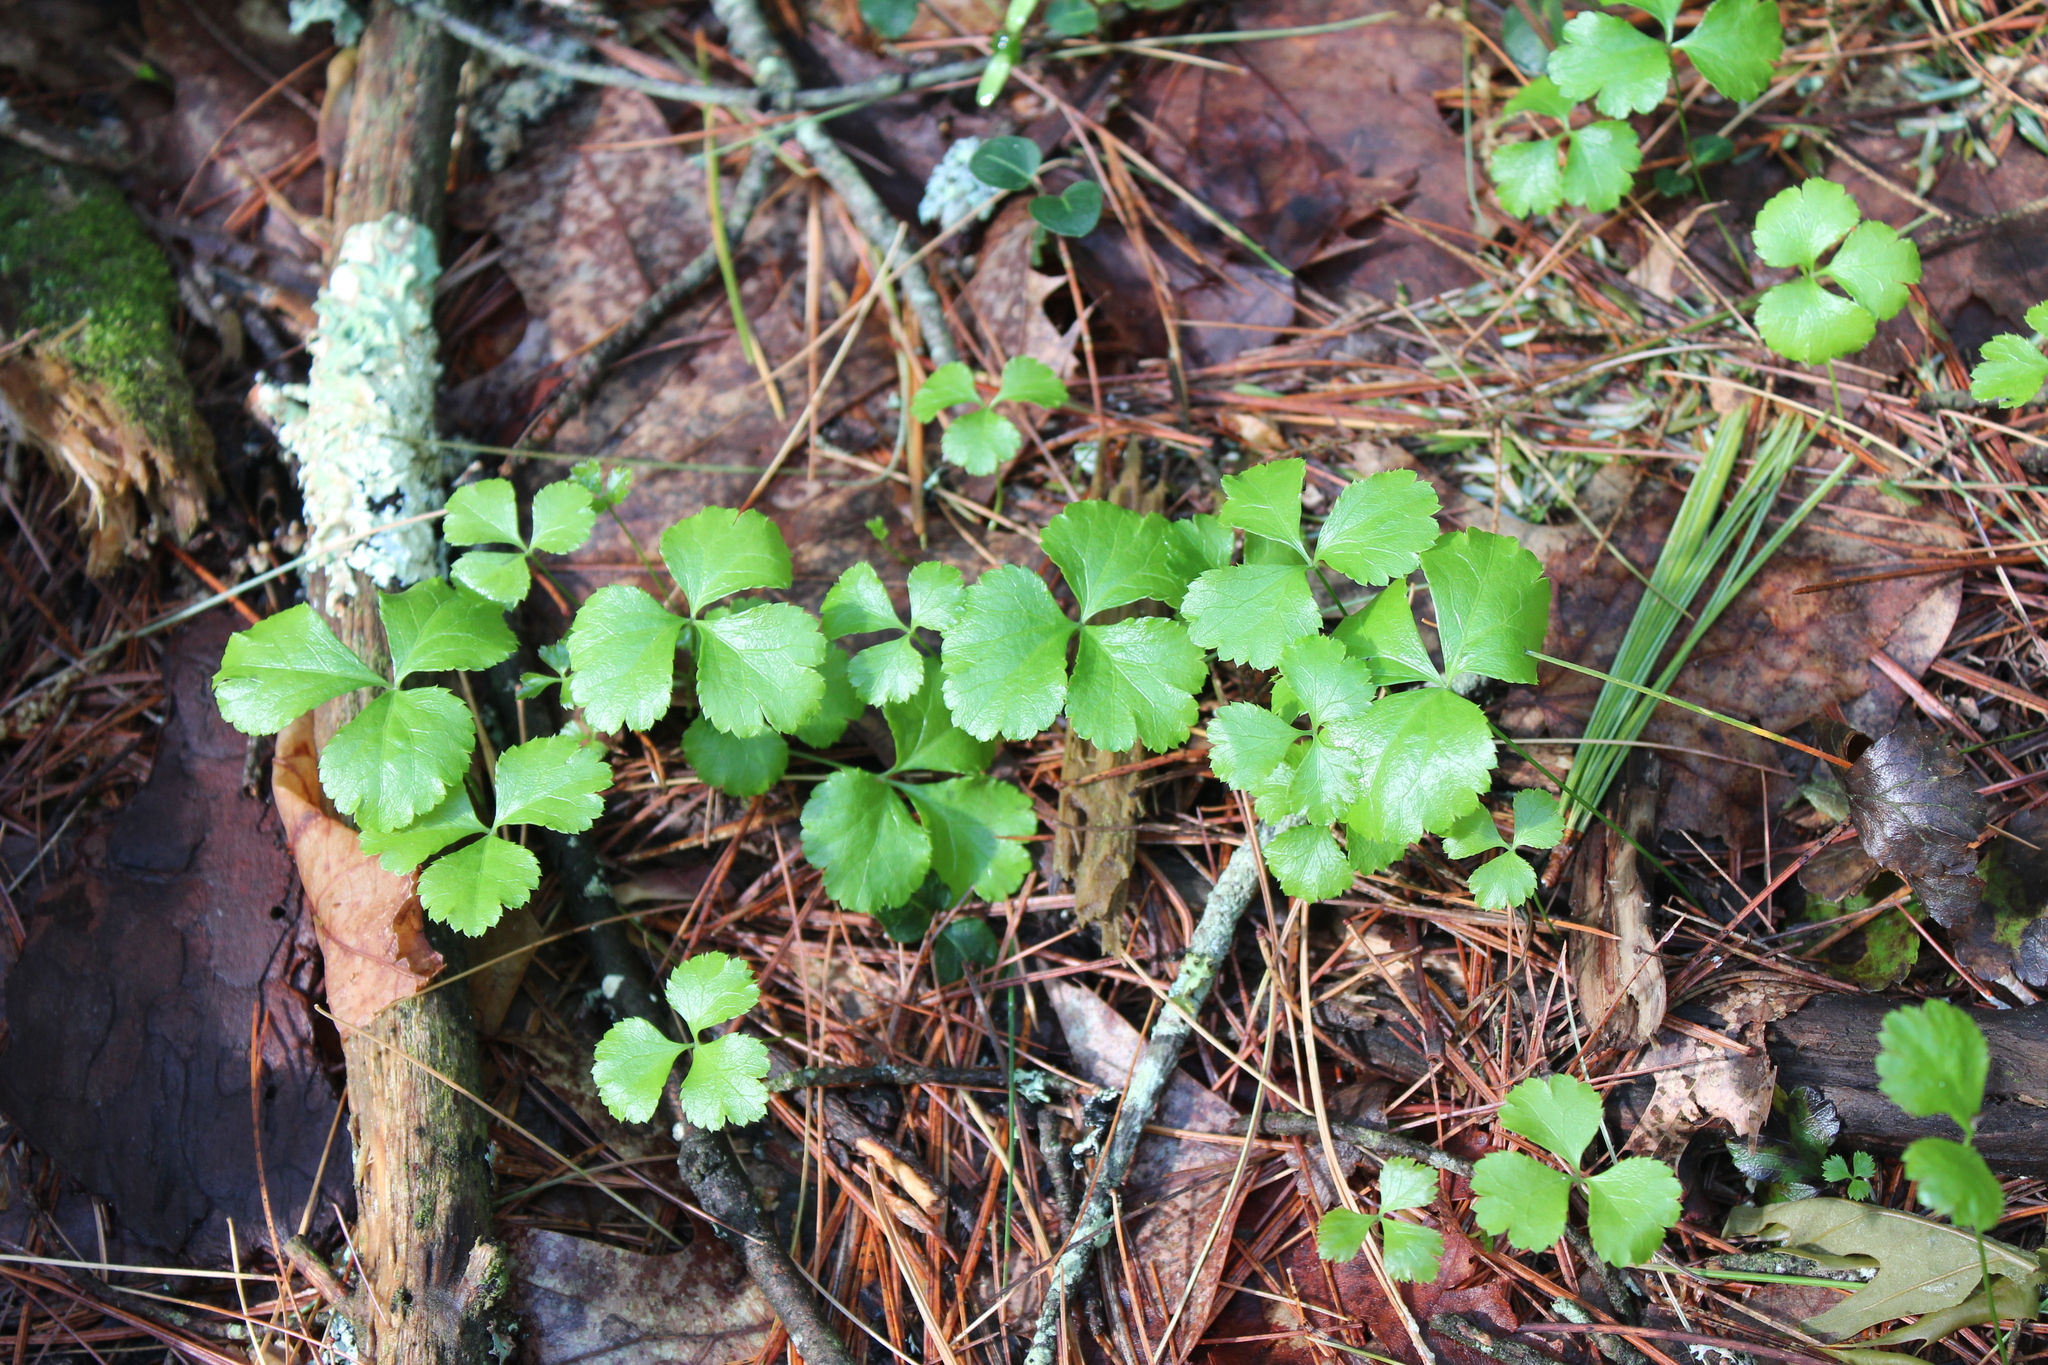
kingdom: Plantae
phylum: Tracheophyta
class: Magnoliopsida
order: Ranunculales
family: Ranunculaceae
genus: Coptis
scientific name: Coptis trifolia
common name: Canker-root
